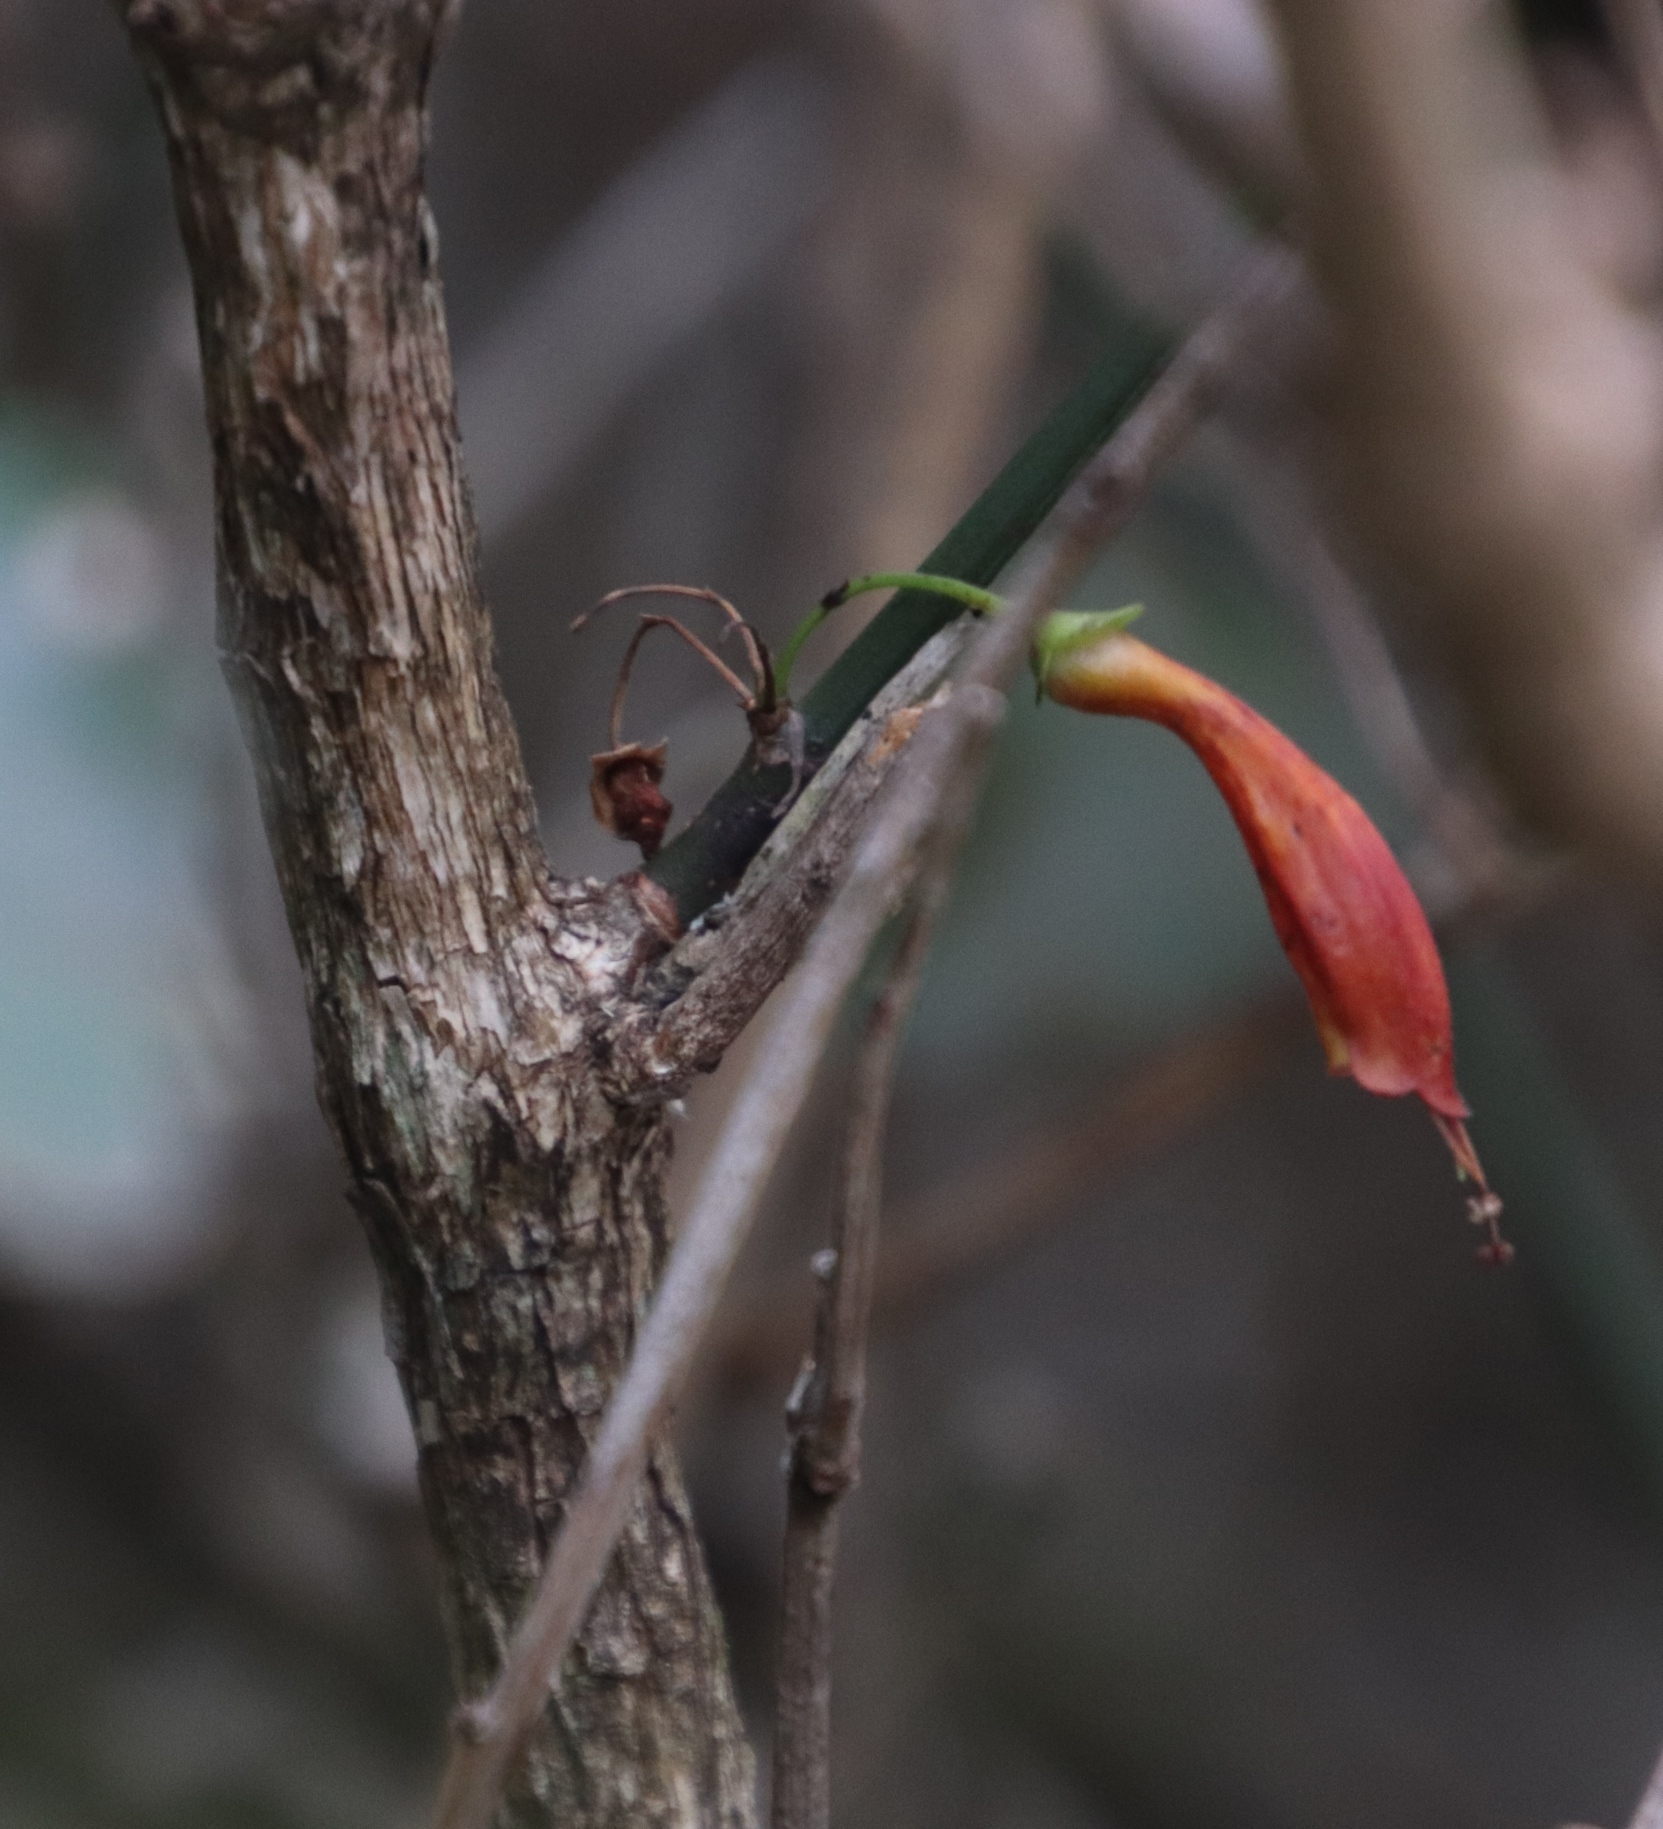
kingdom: Plantae
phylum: Tracheophyta
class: Magnoliopsida
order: Lamiales
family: Stilbaceae
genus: Halleria
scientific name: Halleria lucida
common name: Tree fuschia
